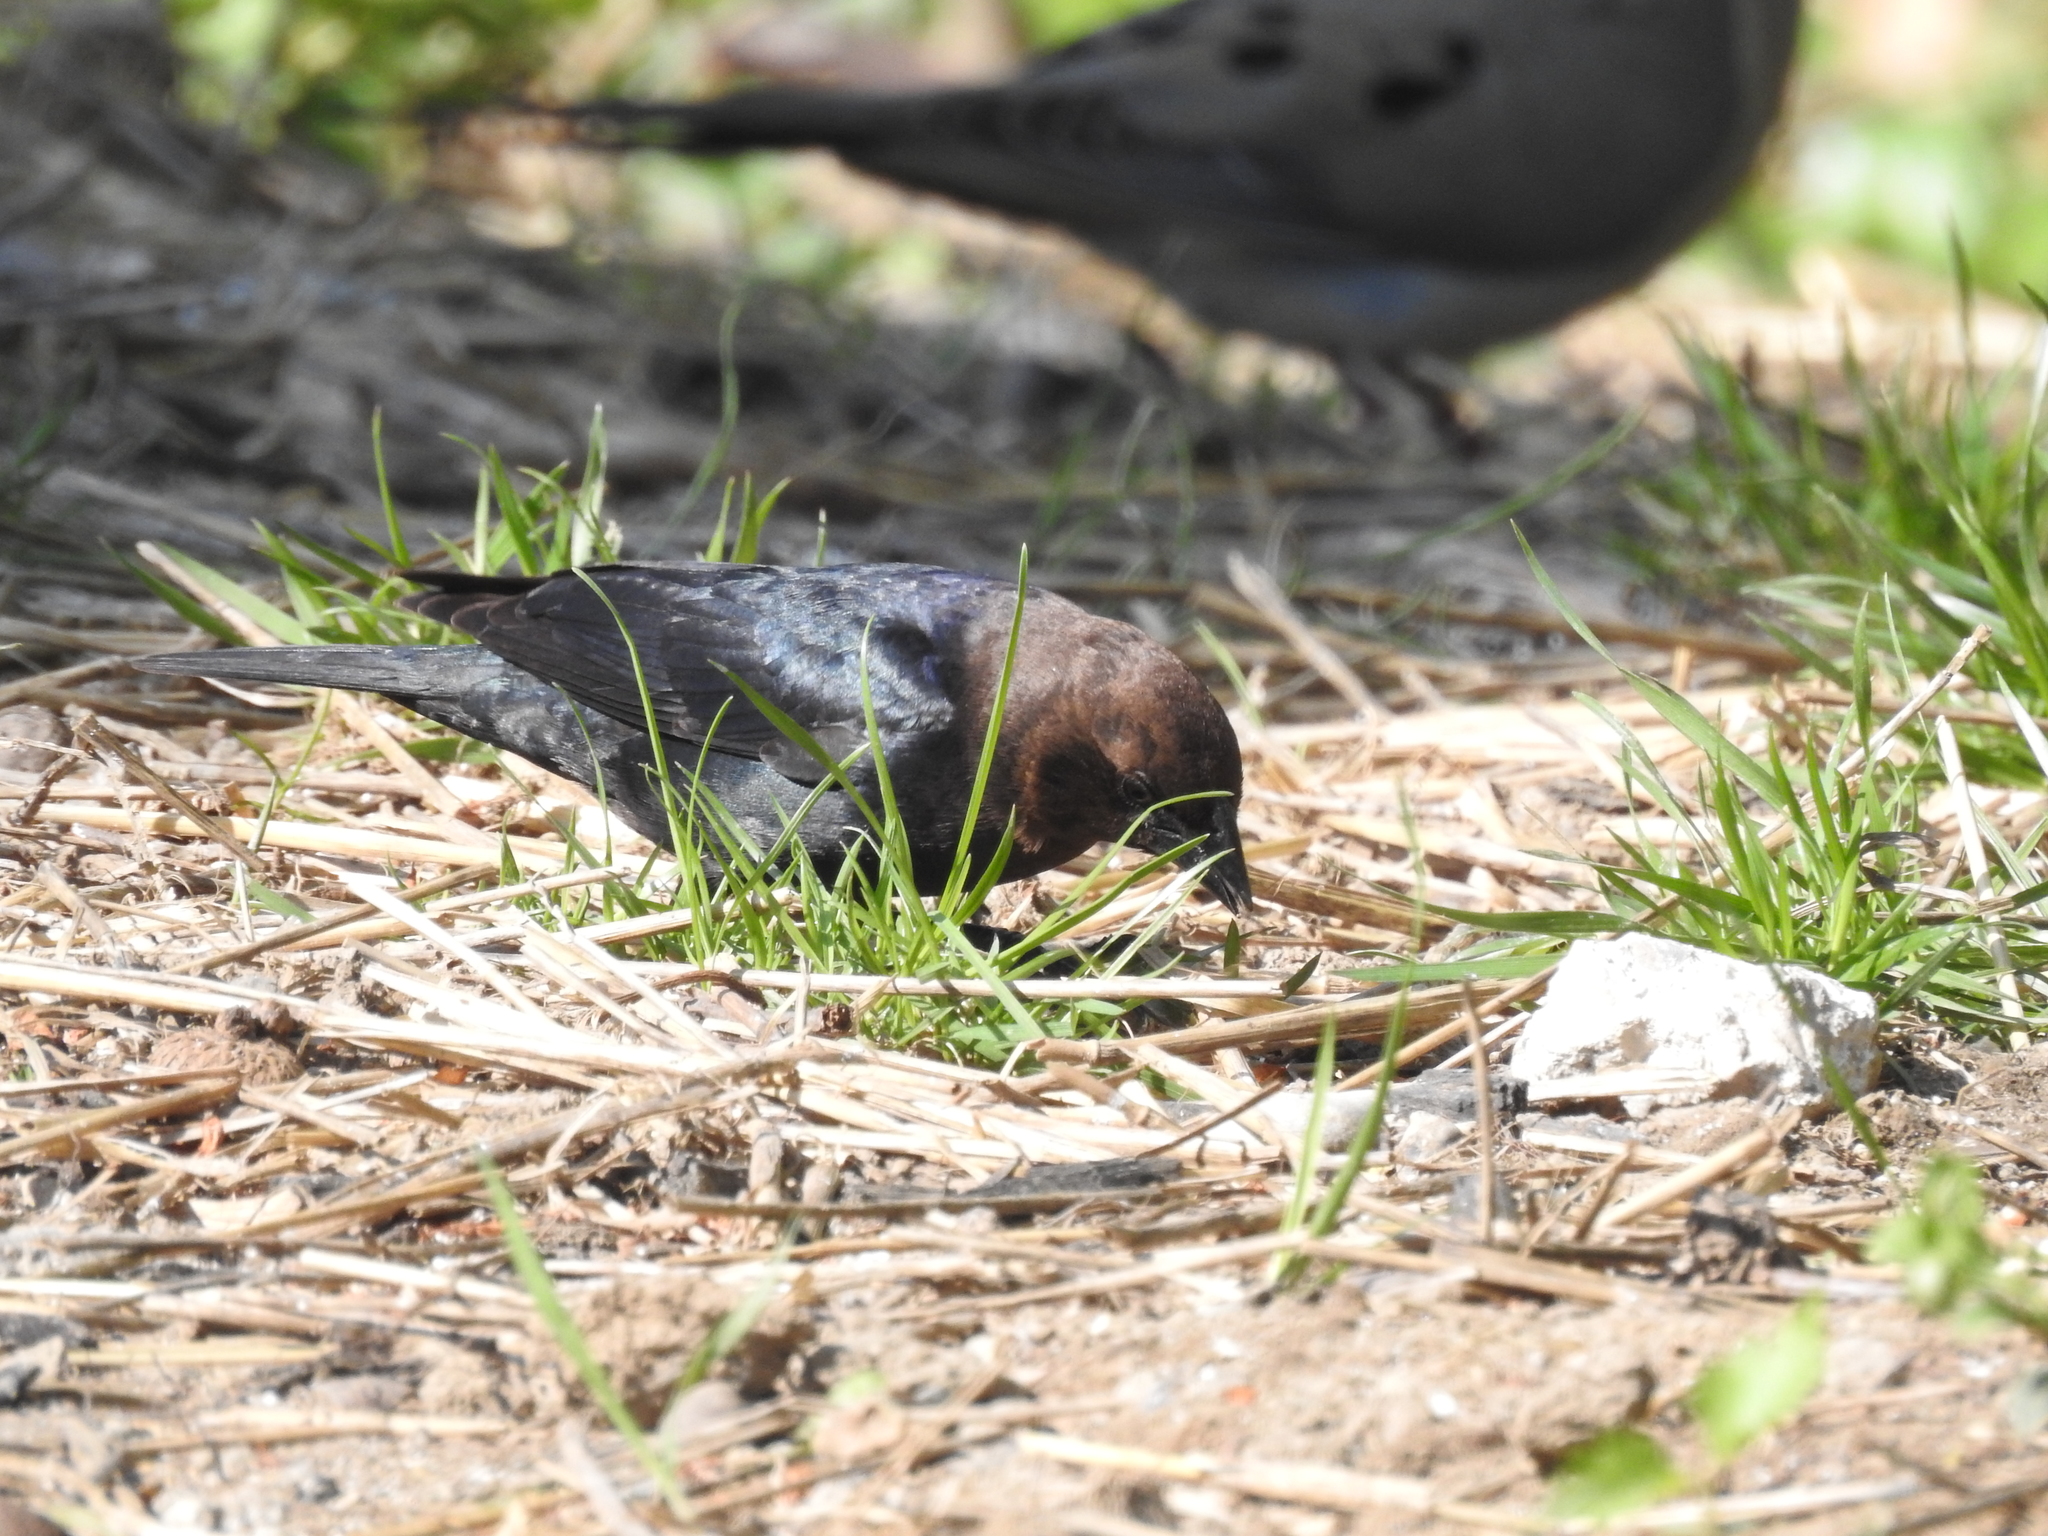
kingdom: Animalia
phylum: Chordata
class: Aves
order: Passeriformes
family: Icteridae
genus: Molothrus
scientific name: Molothrus ater
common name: Brown-headed cowbird
